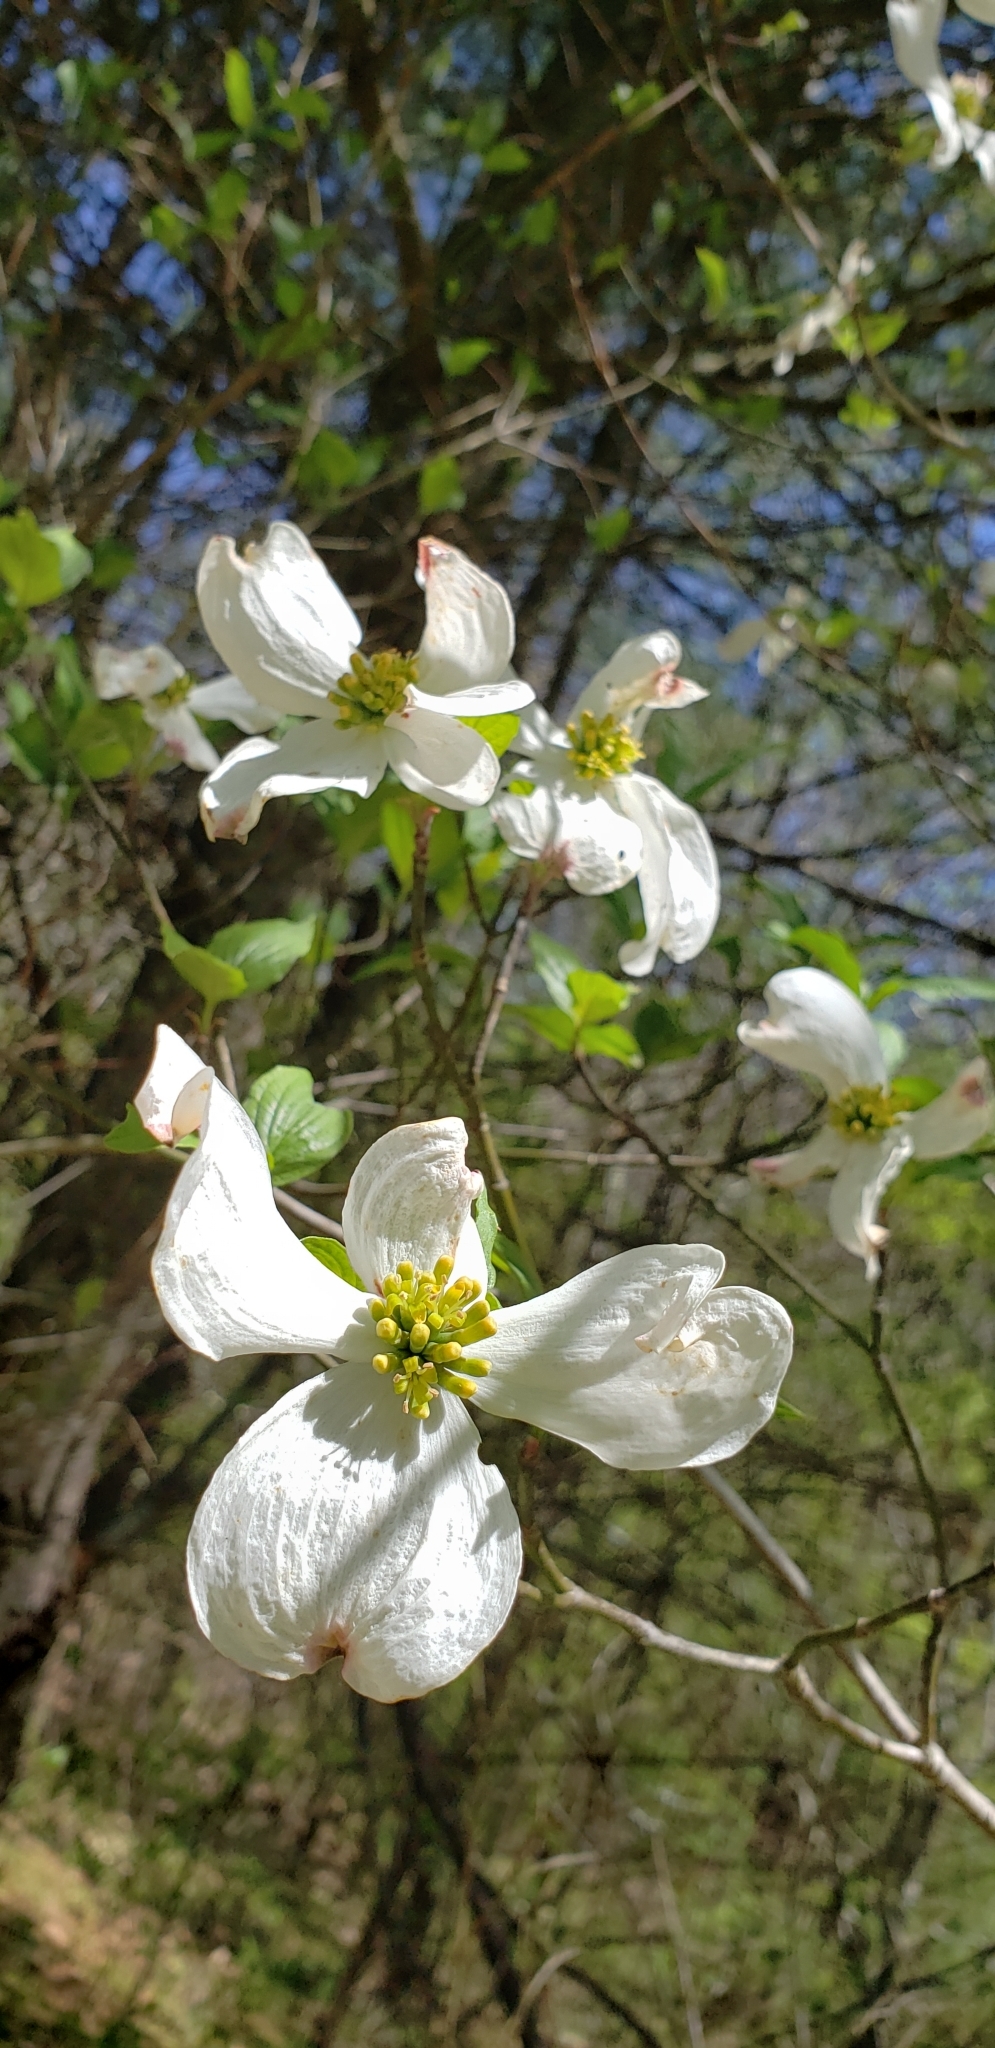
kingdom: Plantae
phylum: Tracheophyta
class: Magnoliopsida
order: Cornales
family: Cornaceae
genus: Cornus
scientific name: Cornus florida
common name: Flowering dogwood
